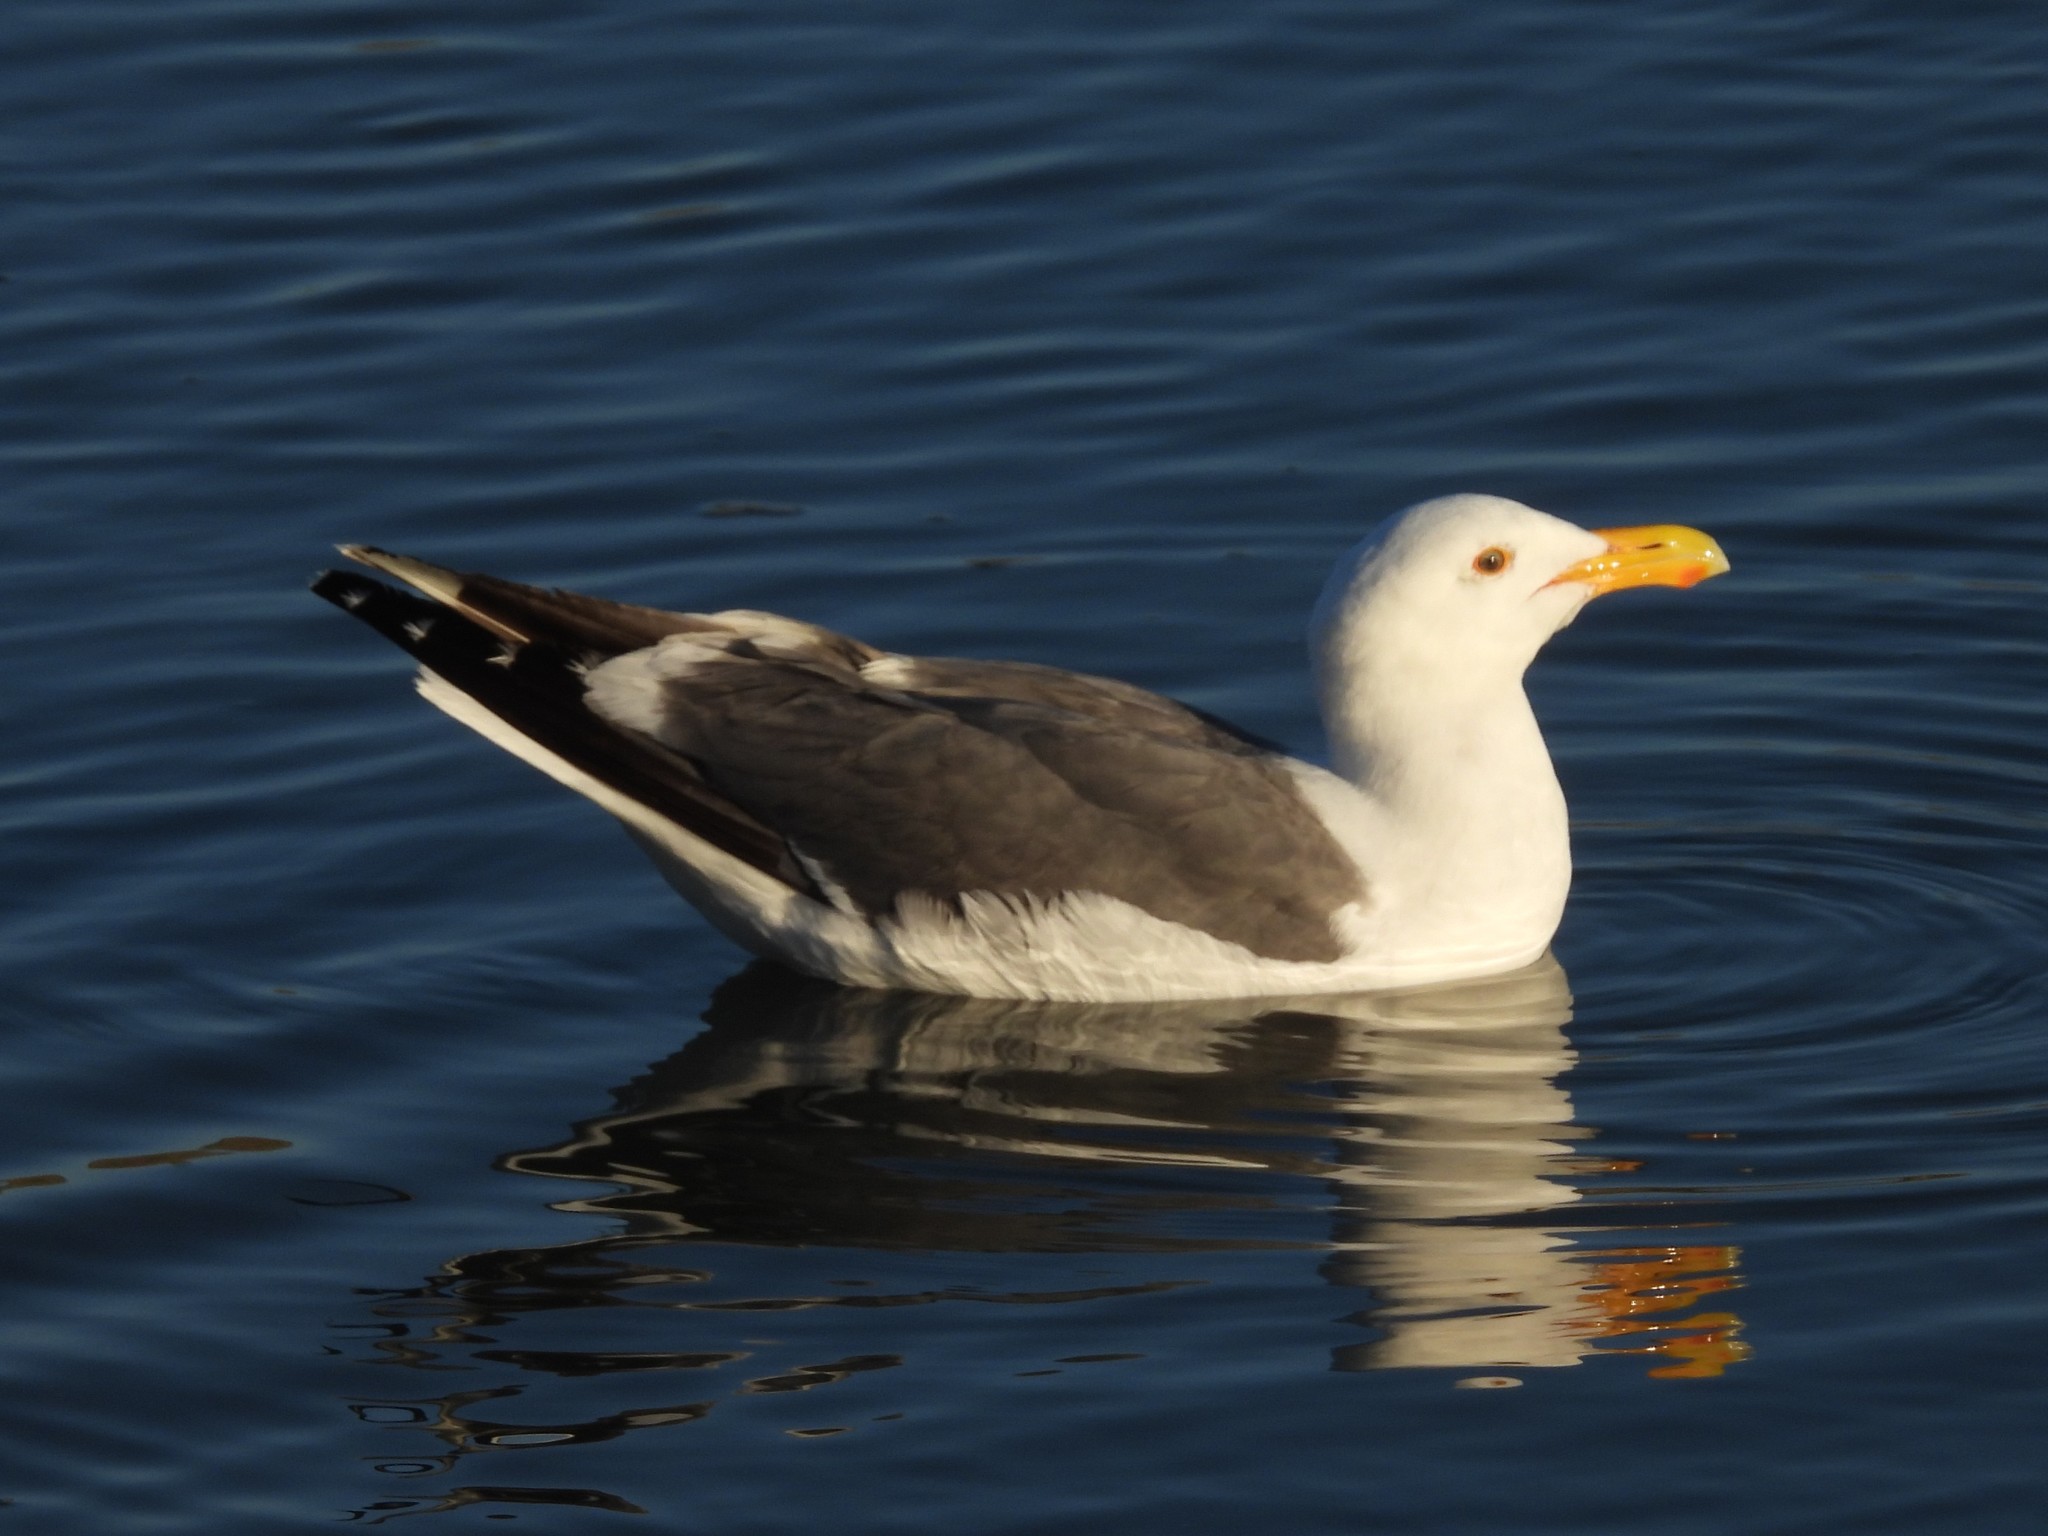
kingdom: Animalia
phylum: Chordata
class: Aves
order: Charadriiformes
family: Laridae
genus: Larus
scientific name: Larus occidentalis
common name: Western gull
